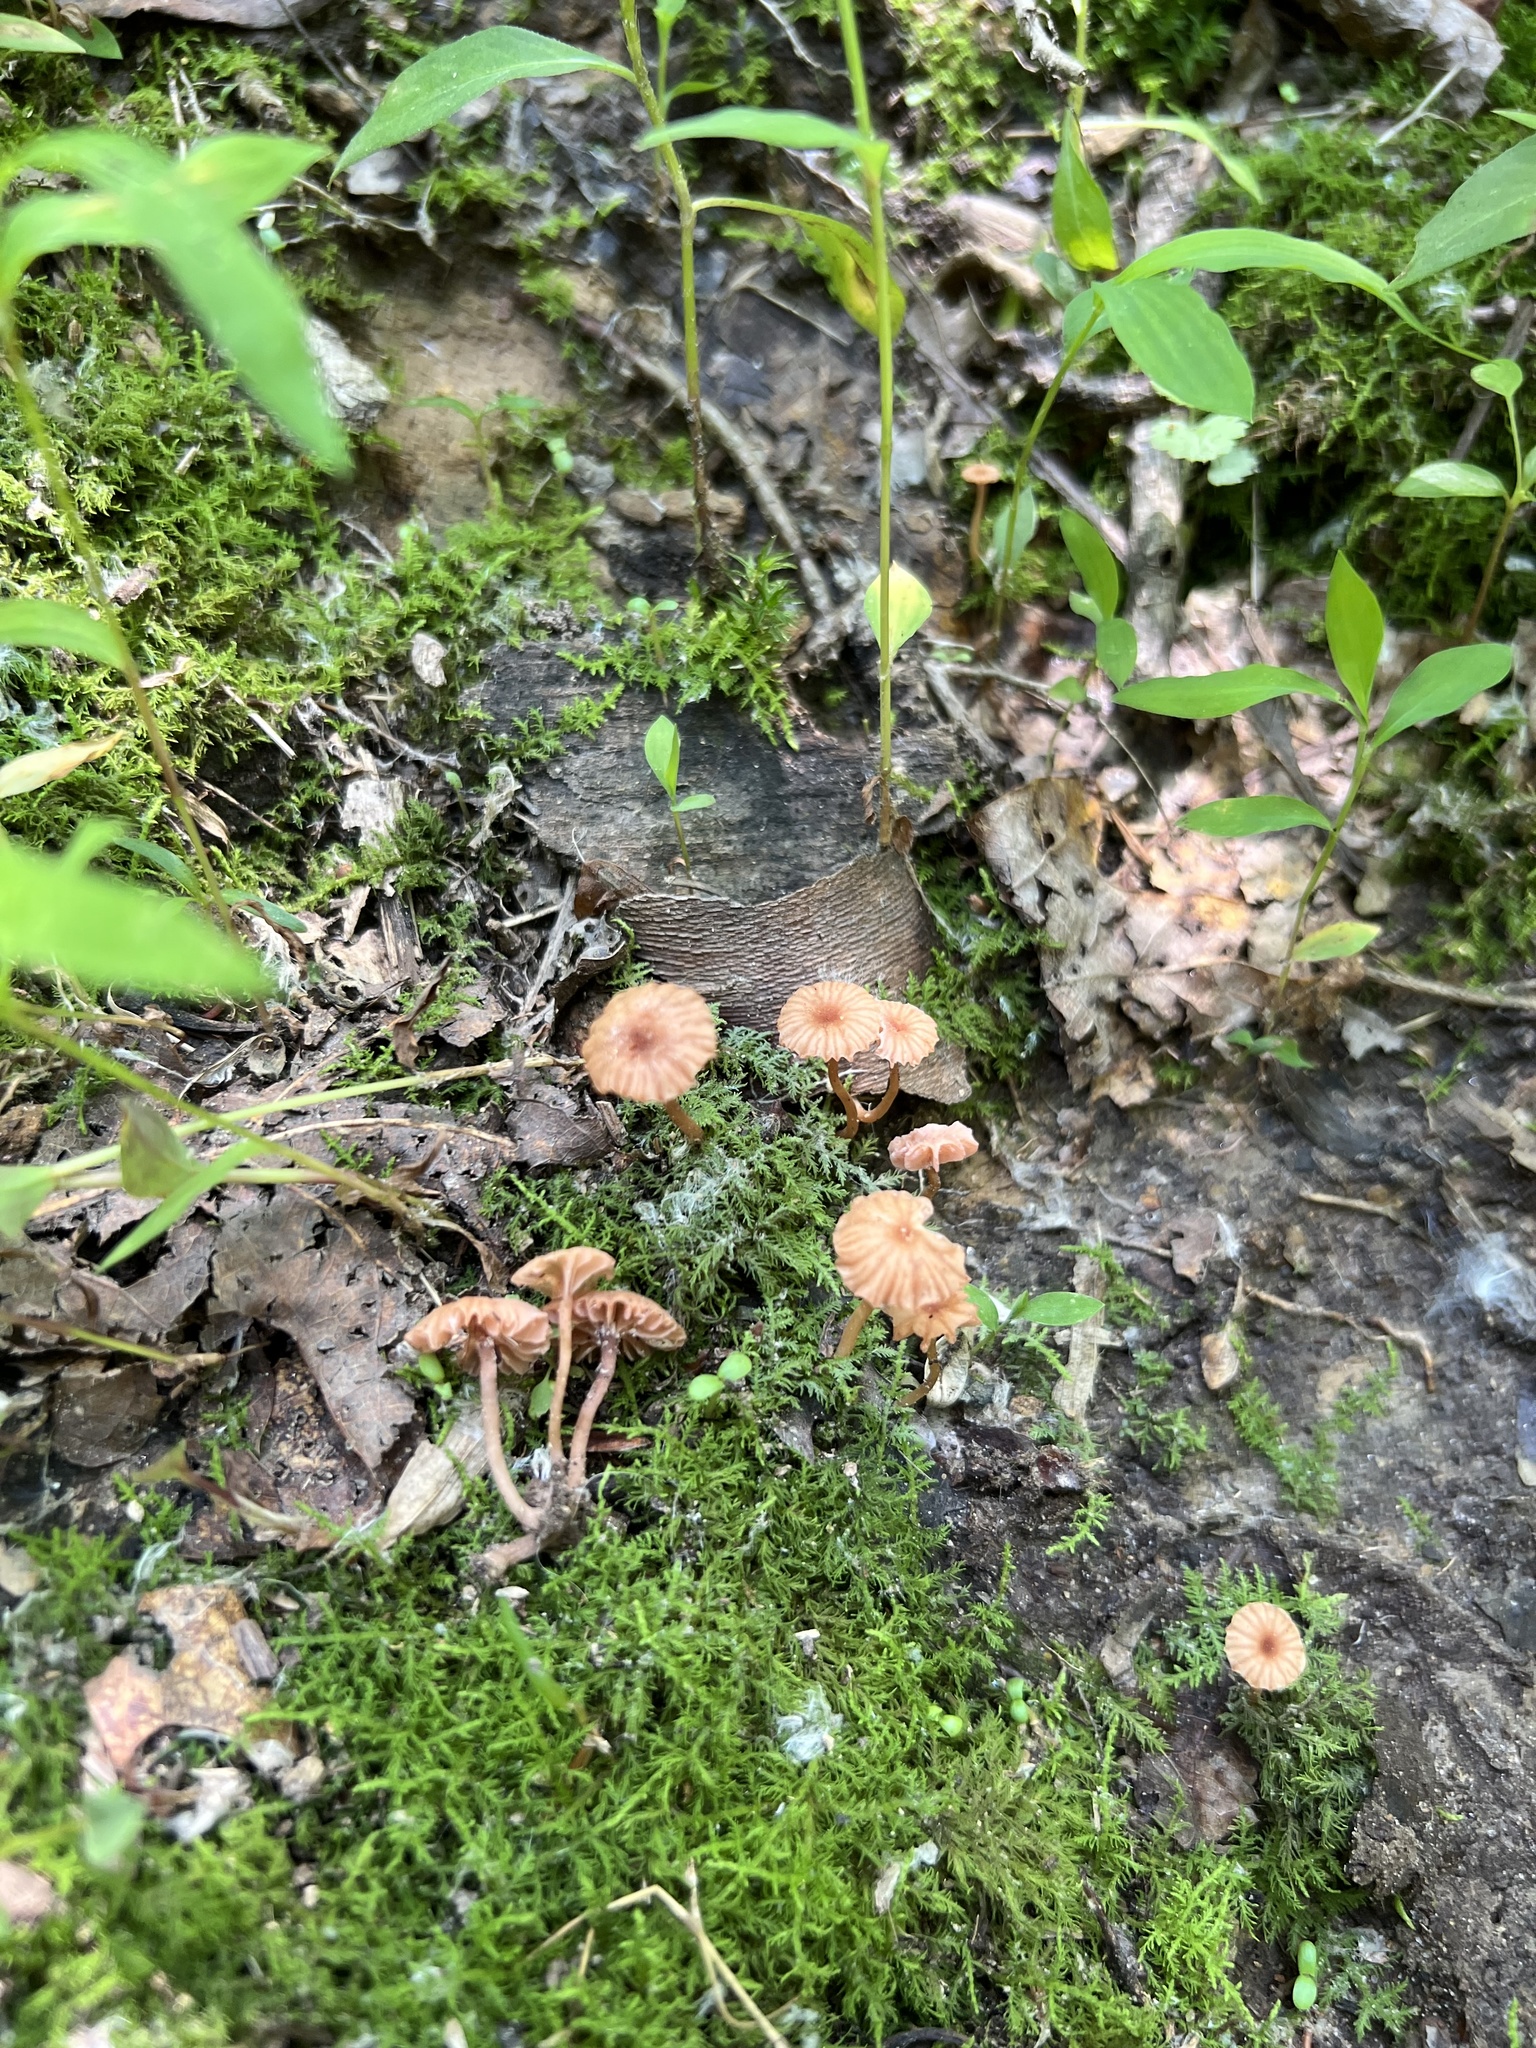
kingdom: Fungi
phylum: Basidiomycota
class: Agaricomycetes
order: Agaricales
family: Hydnangiaceae
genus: Laccaria
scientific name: Laccaria tortilis
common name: Twisted deceiver
